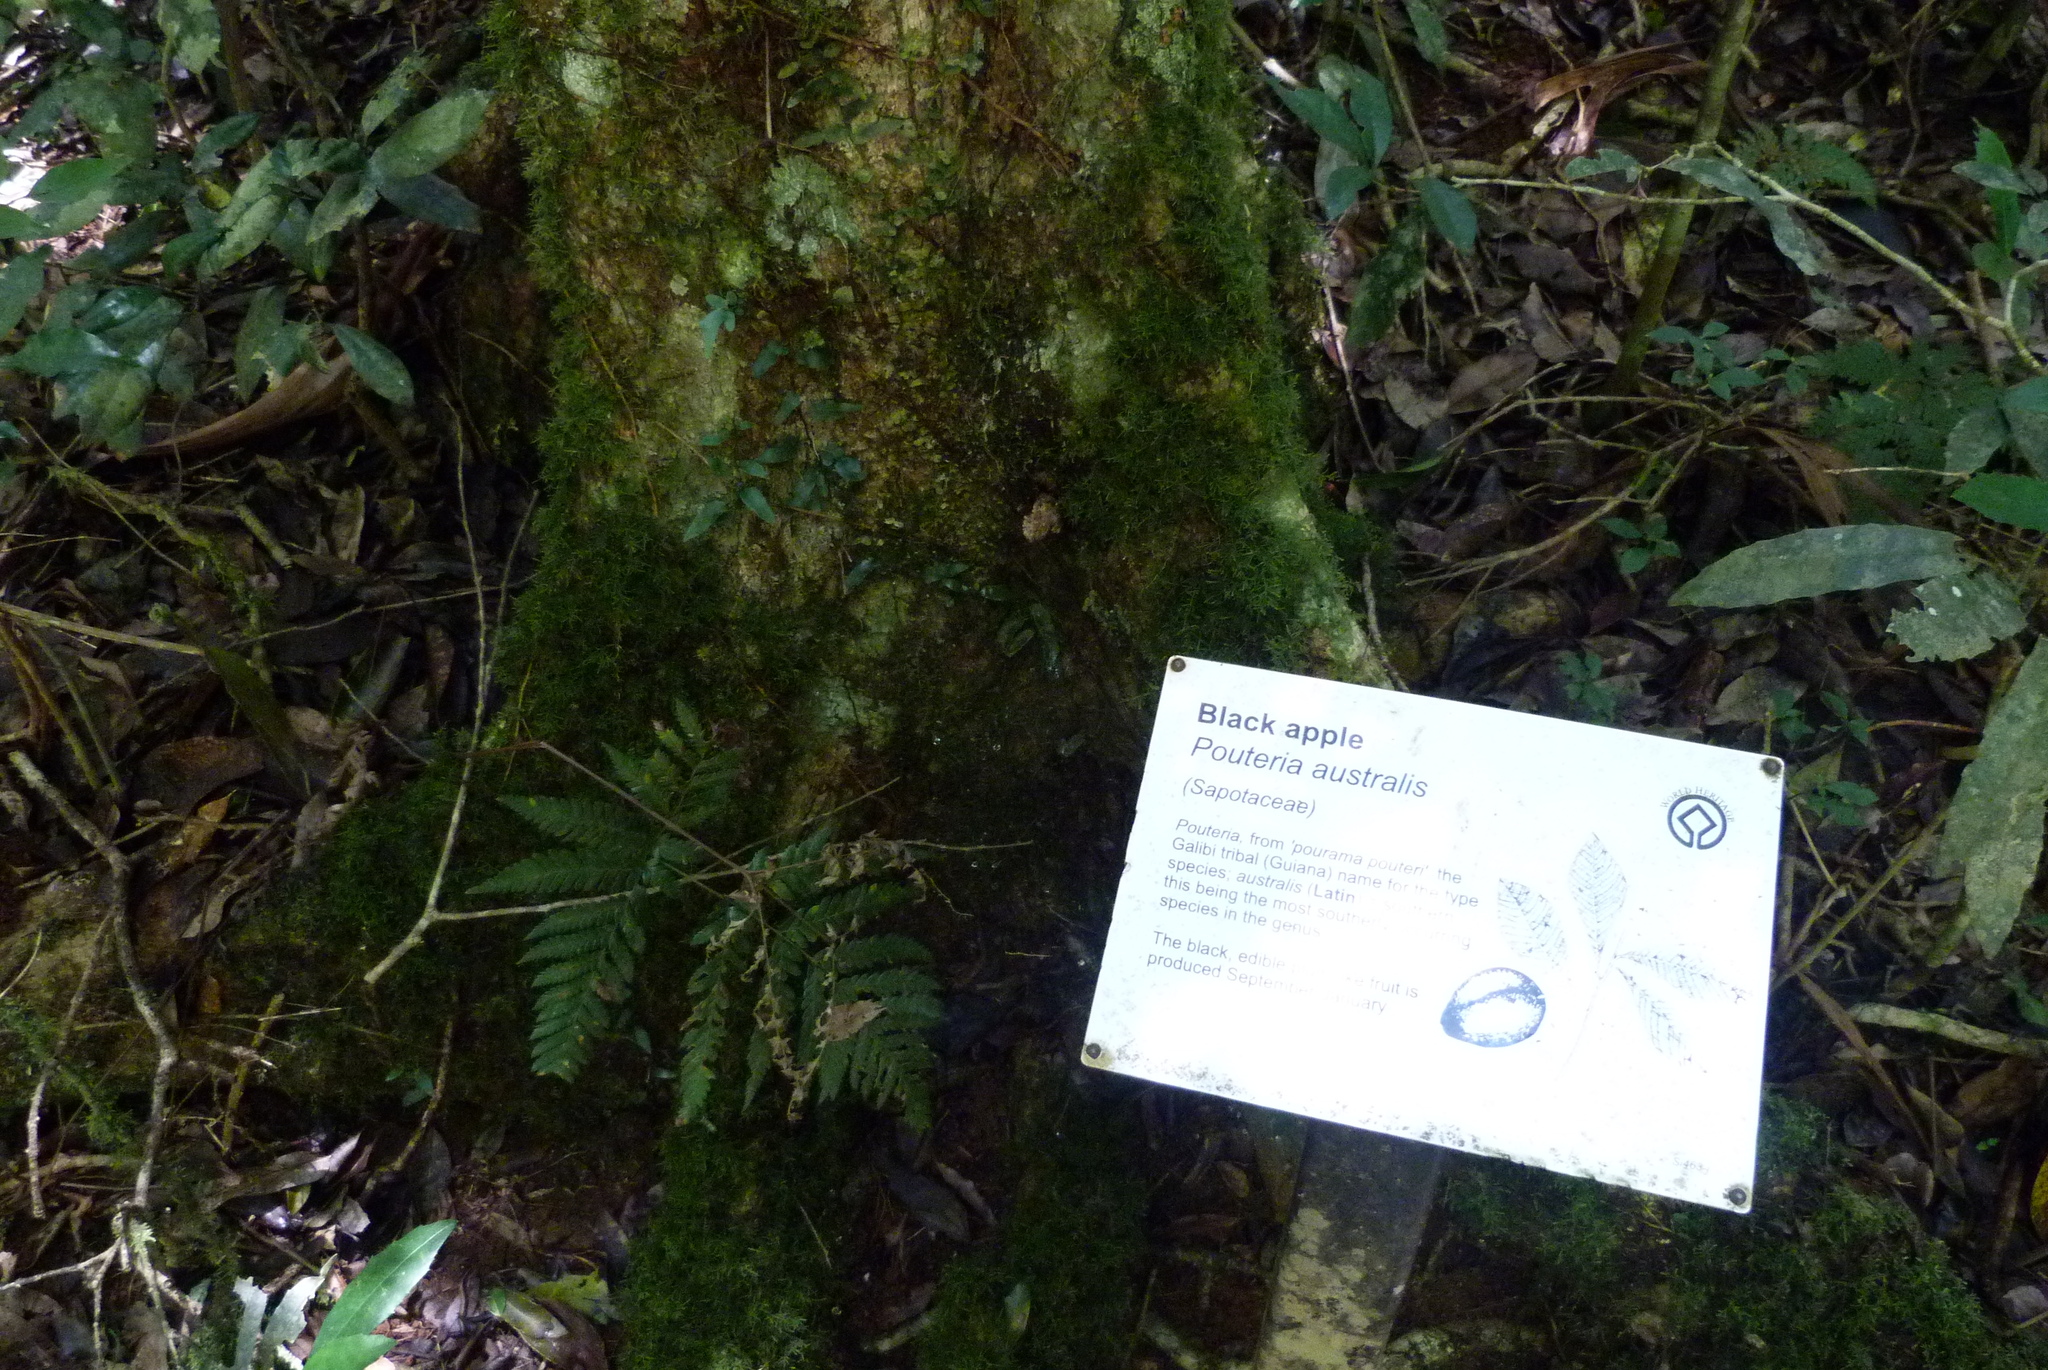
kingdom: Plantae
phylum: Tracheophyta
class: Magnoliopsida
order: Ericales
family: Sapotaceae
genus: Planchonella
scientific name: Planchonella australis
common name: Black apple
